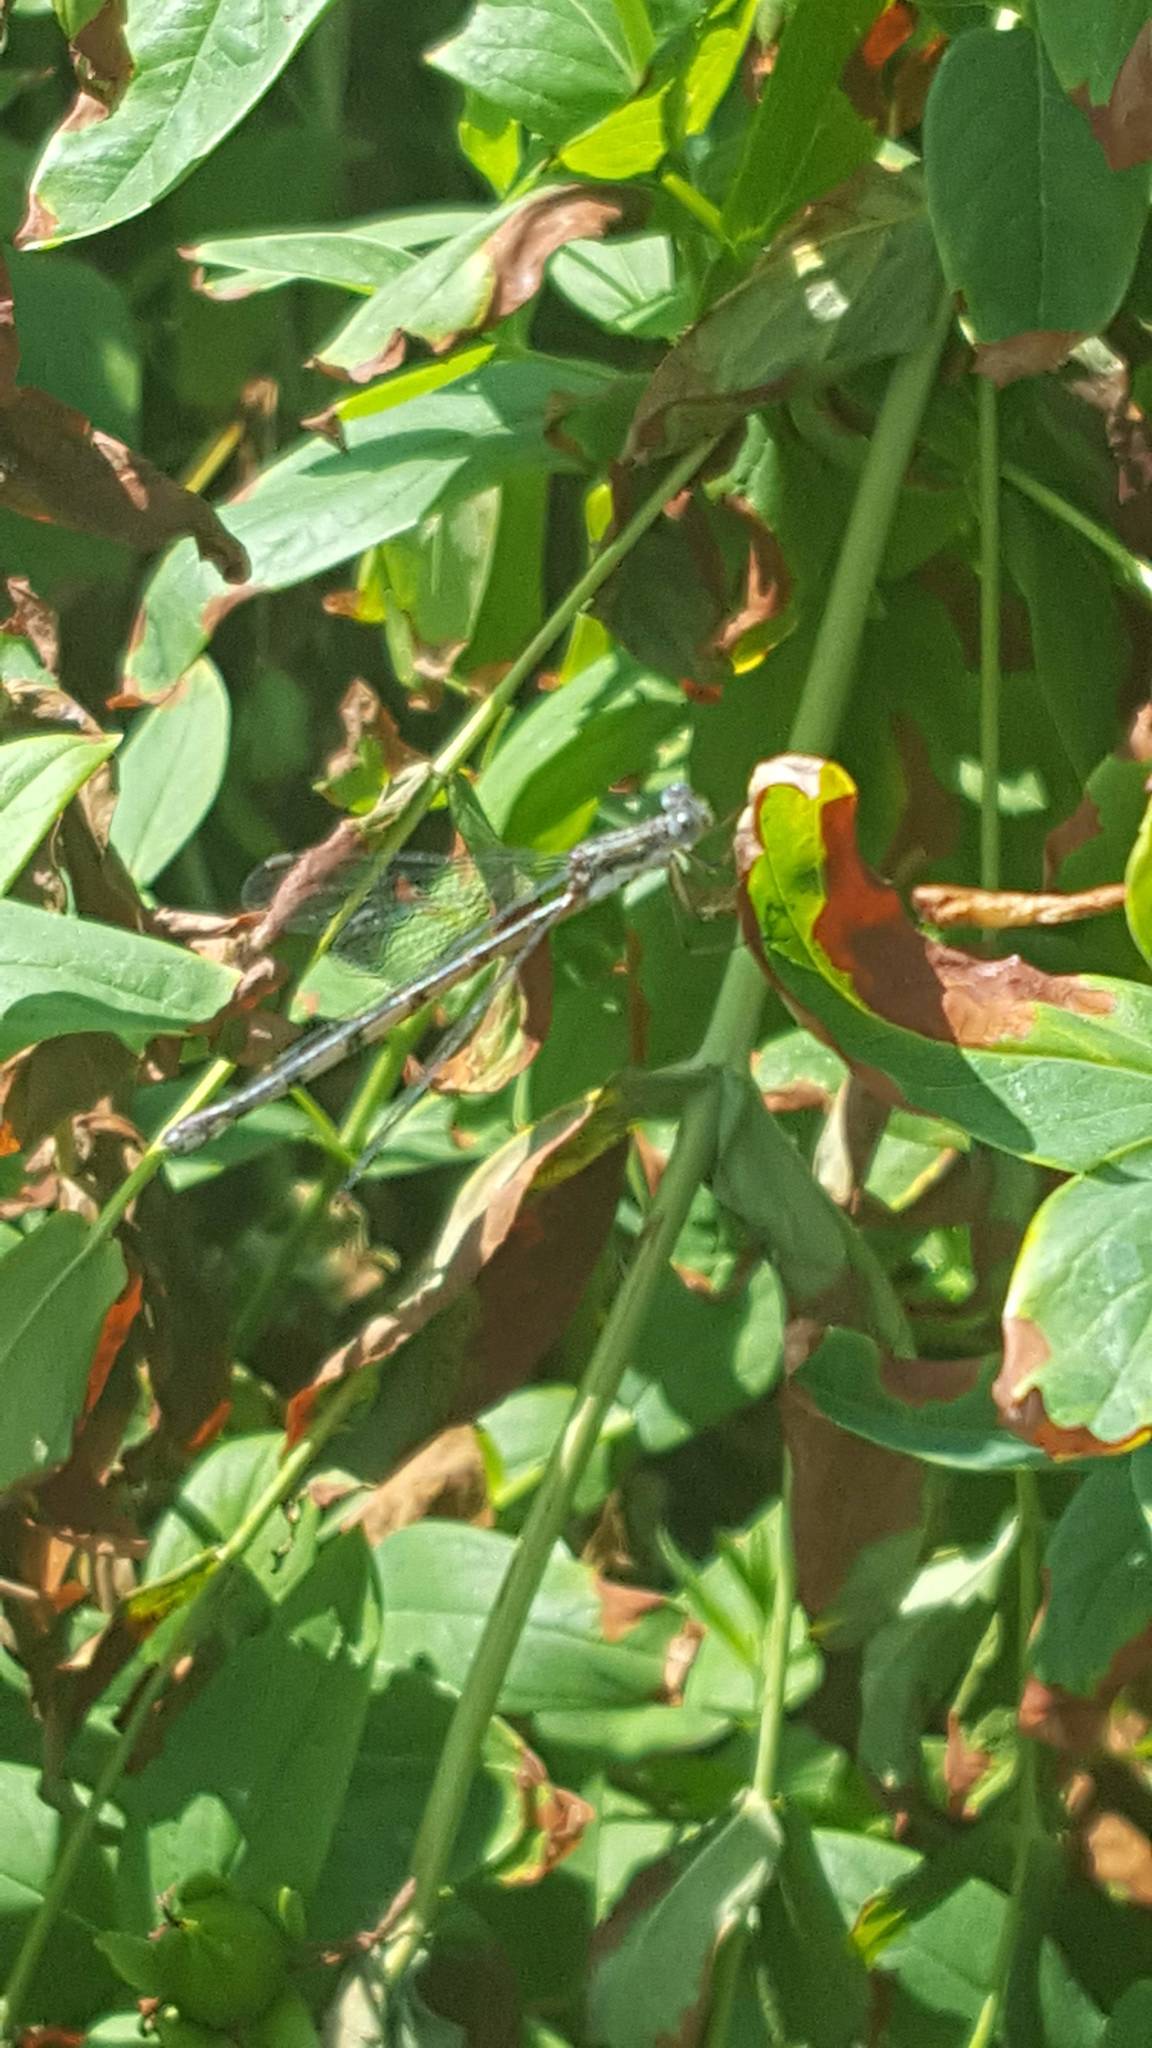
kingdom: Animalia
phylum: Arthropoda
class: Insecta
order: Odonata
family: Lestidae
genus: Lestes
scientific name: Lestes congener
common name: Spotted spreadwing
